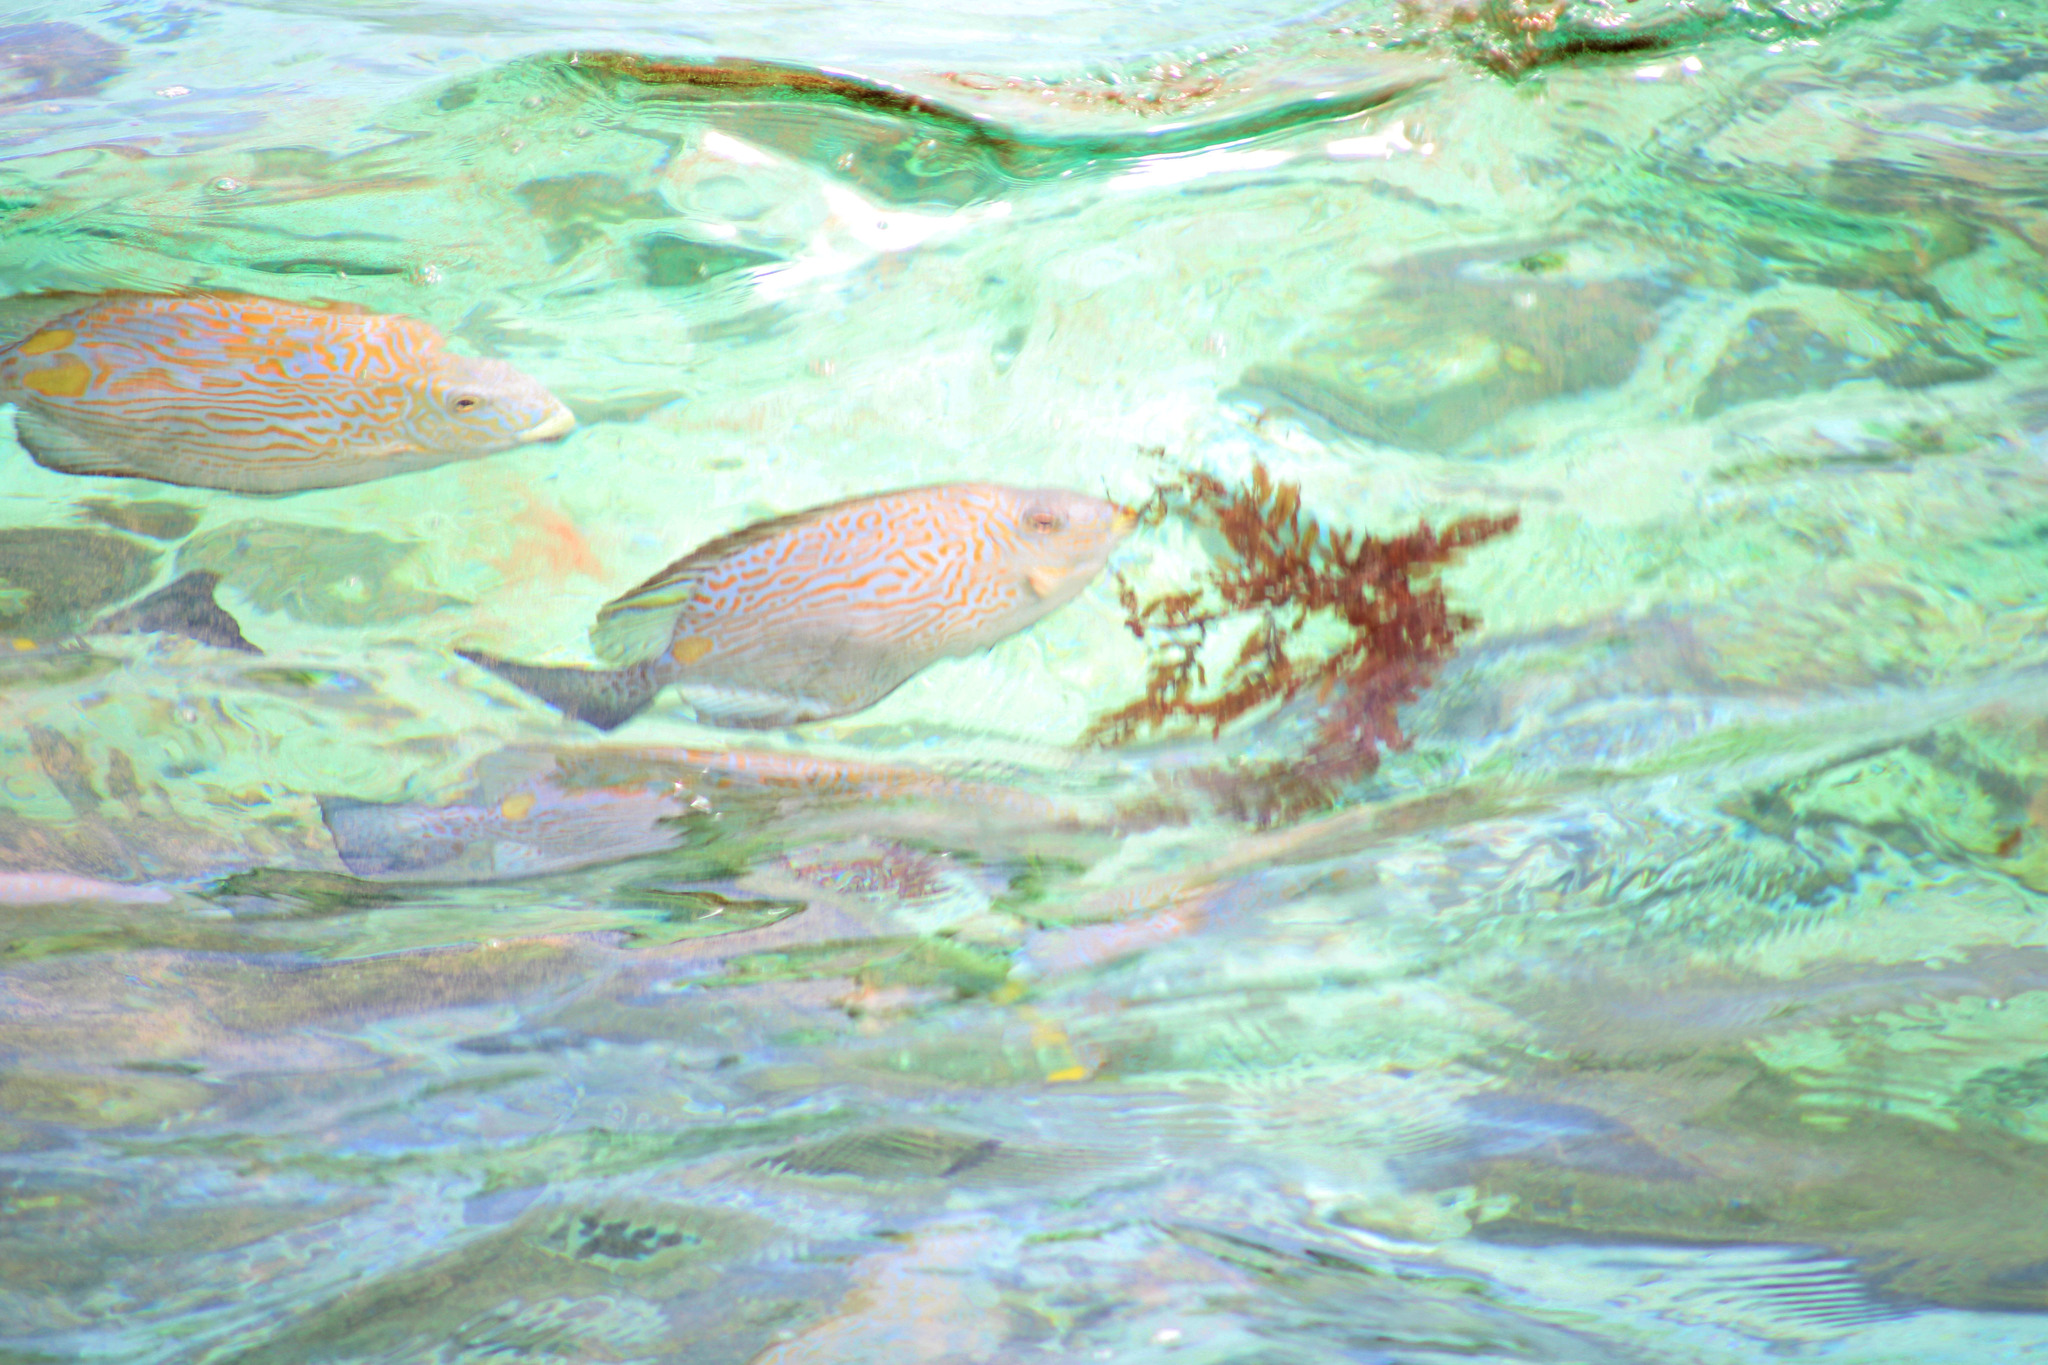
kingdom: Animalia
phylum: Chordata
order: Perciformes
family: Siganidae
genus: Siganus
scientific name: Siganus lineatus
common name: Lined rabbitfish
